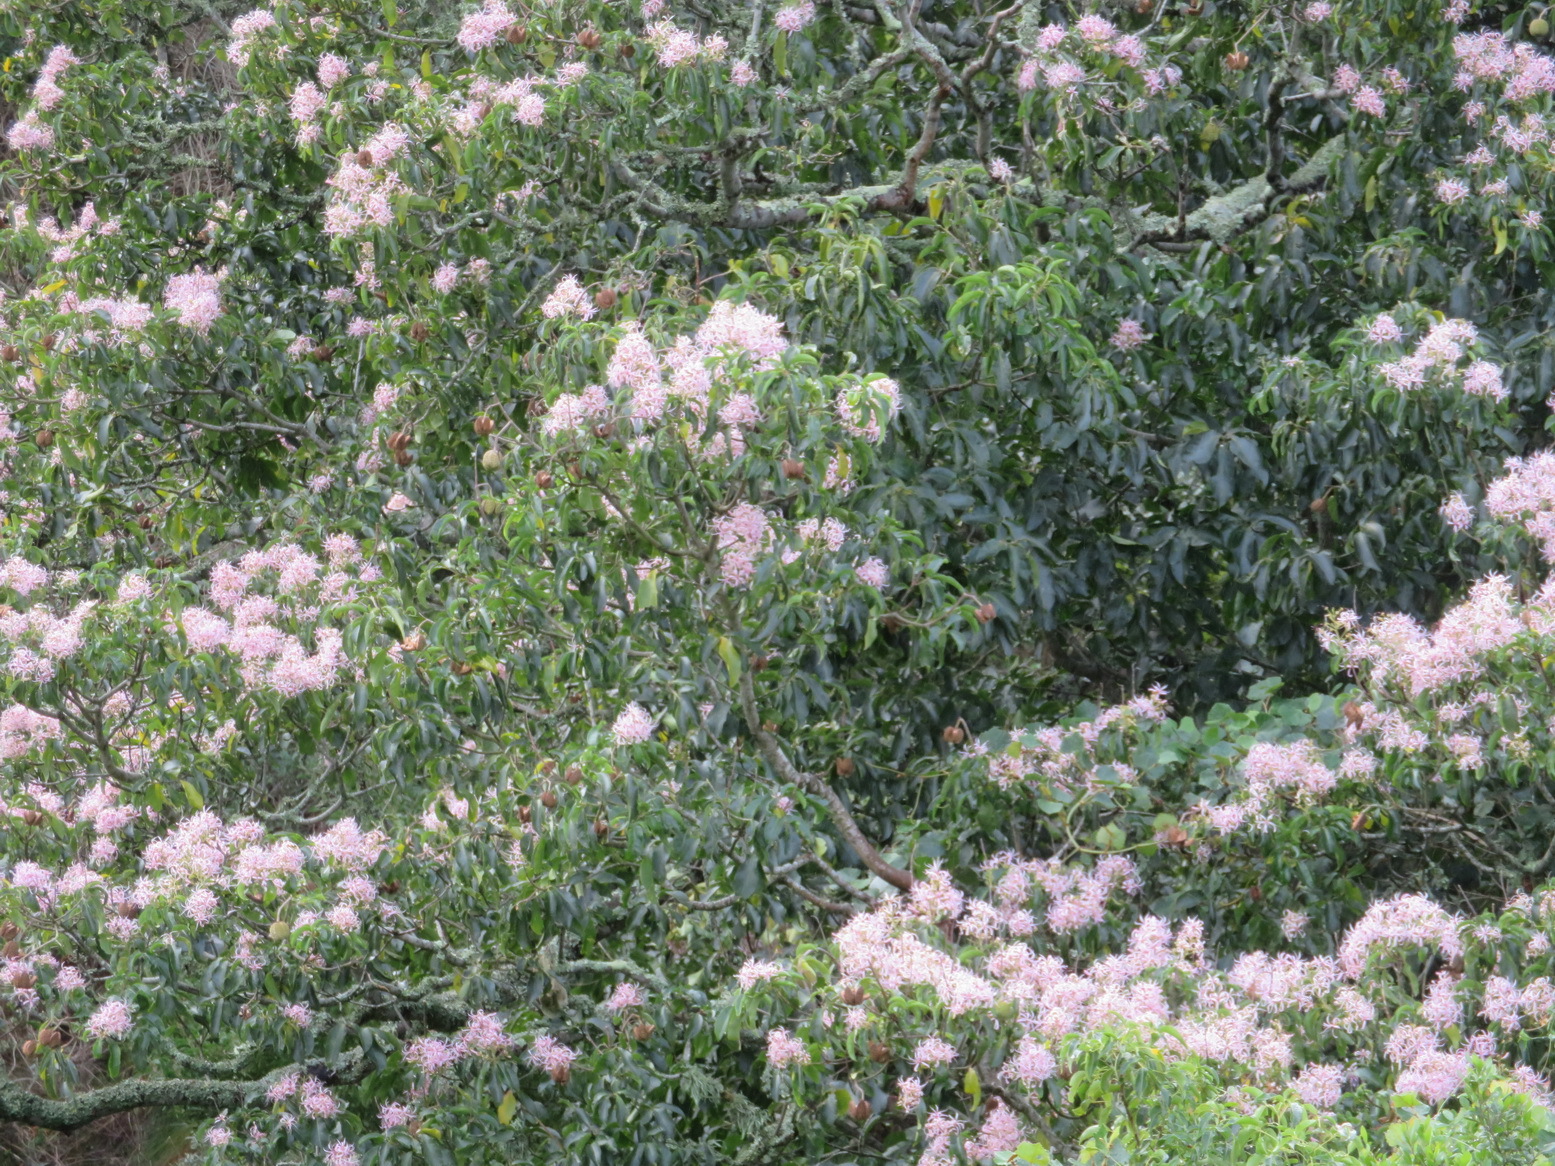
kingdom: Plantae
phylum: Tracheophyta
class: Magnoliopsida
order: Sapindales
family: Rutaceae
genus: Calodendrum
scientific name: Calodendrum capense
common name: Cape chestnut
